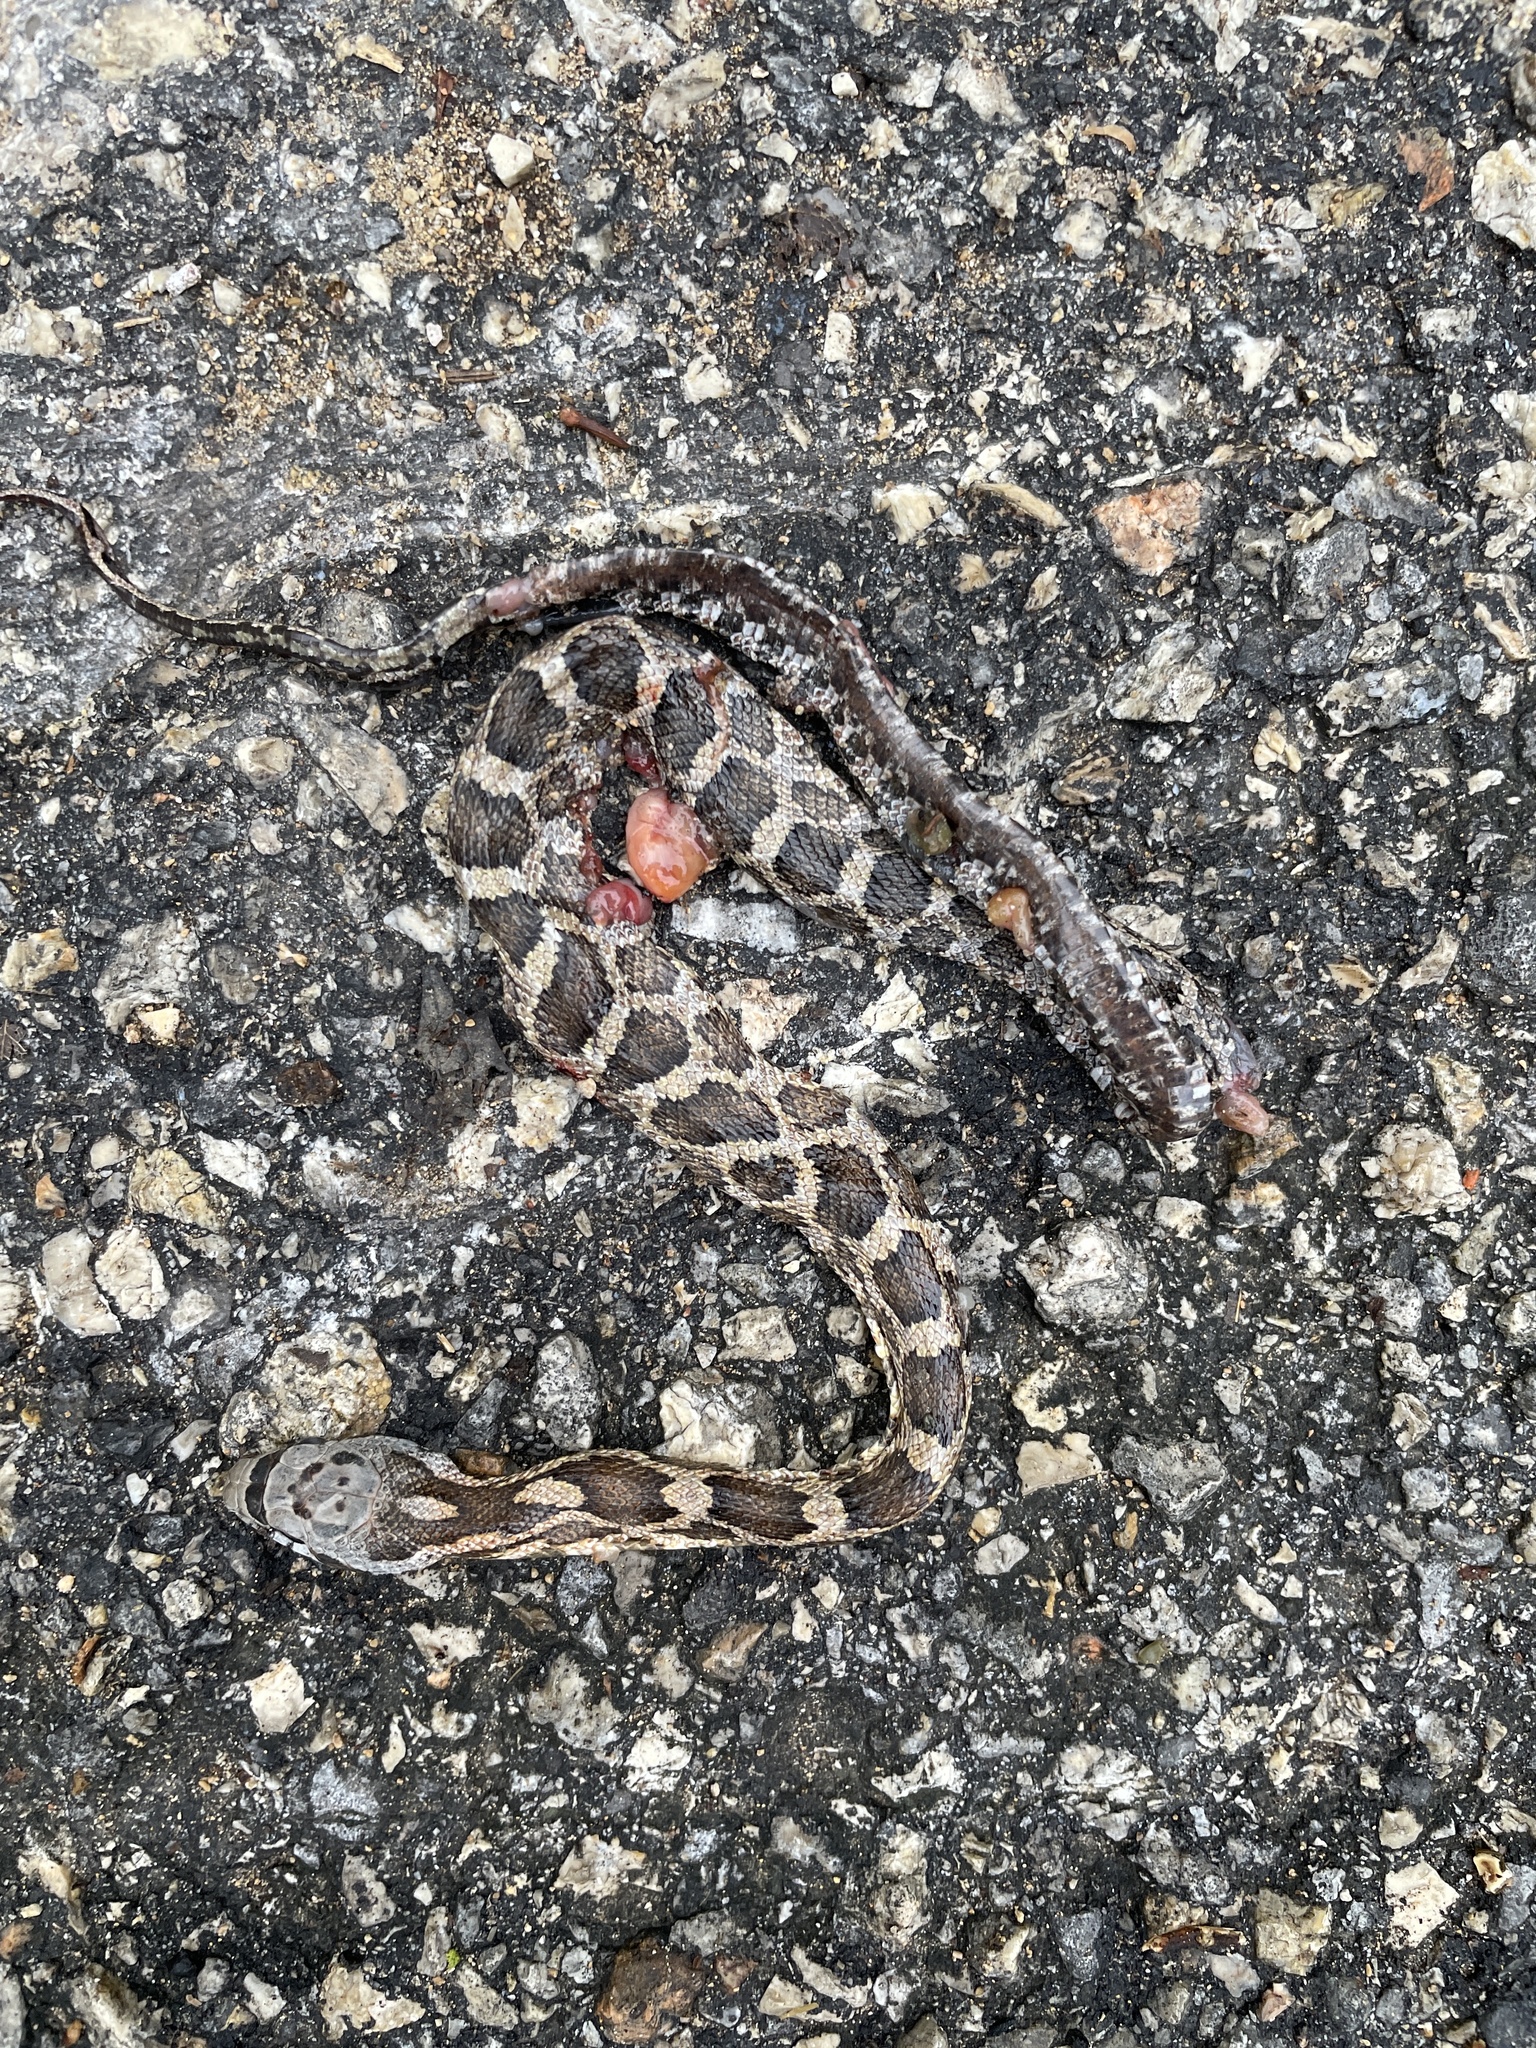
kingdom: Animalia
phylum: Chordata
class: Squamata
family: Colubridae
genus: Pantherophis
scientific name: Pantherophis obsoletus
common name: Black rat snake
